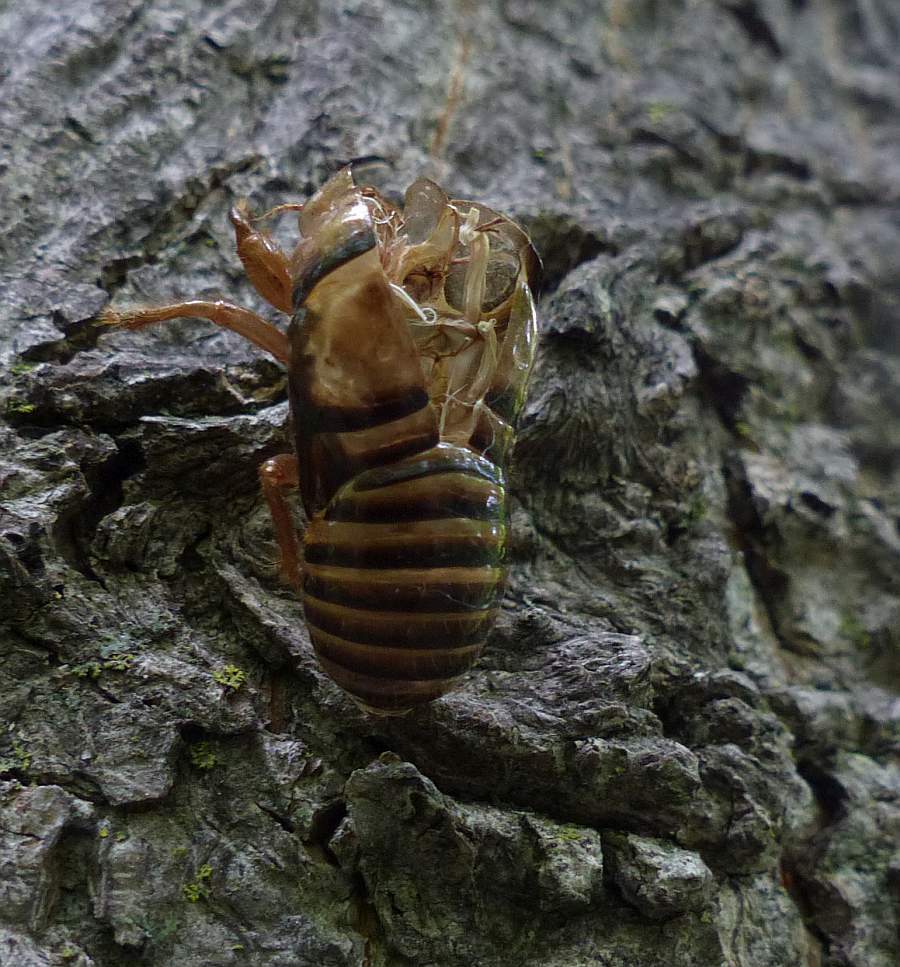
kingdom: Animalia
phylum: Arthropoda
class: Insecta
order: Hemiptera
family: Cicadidae
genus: Okanagana
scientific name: Okanagana
